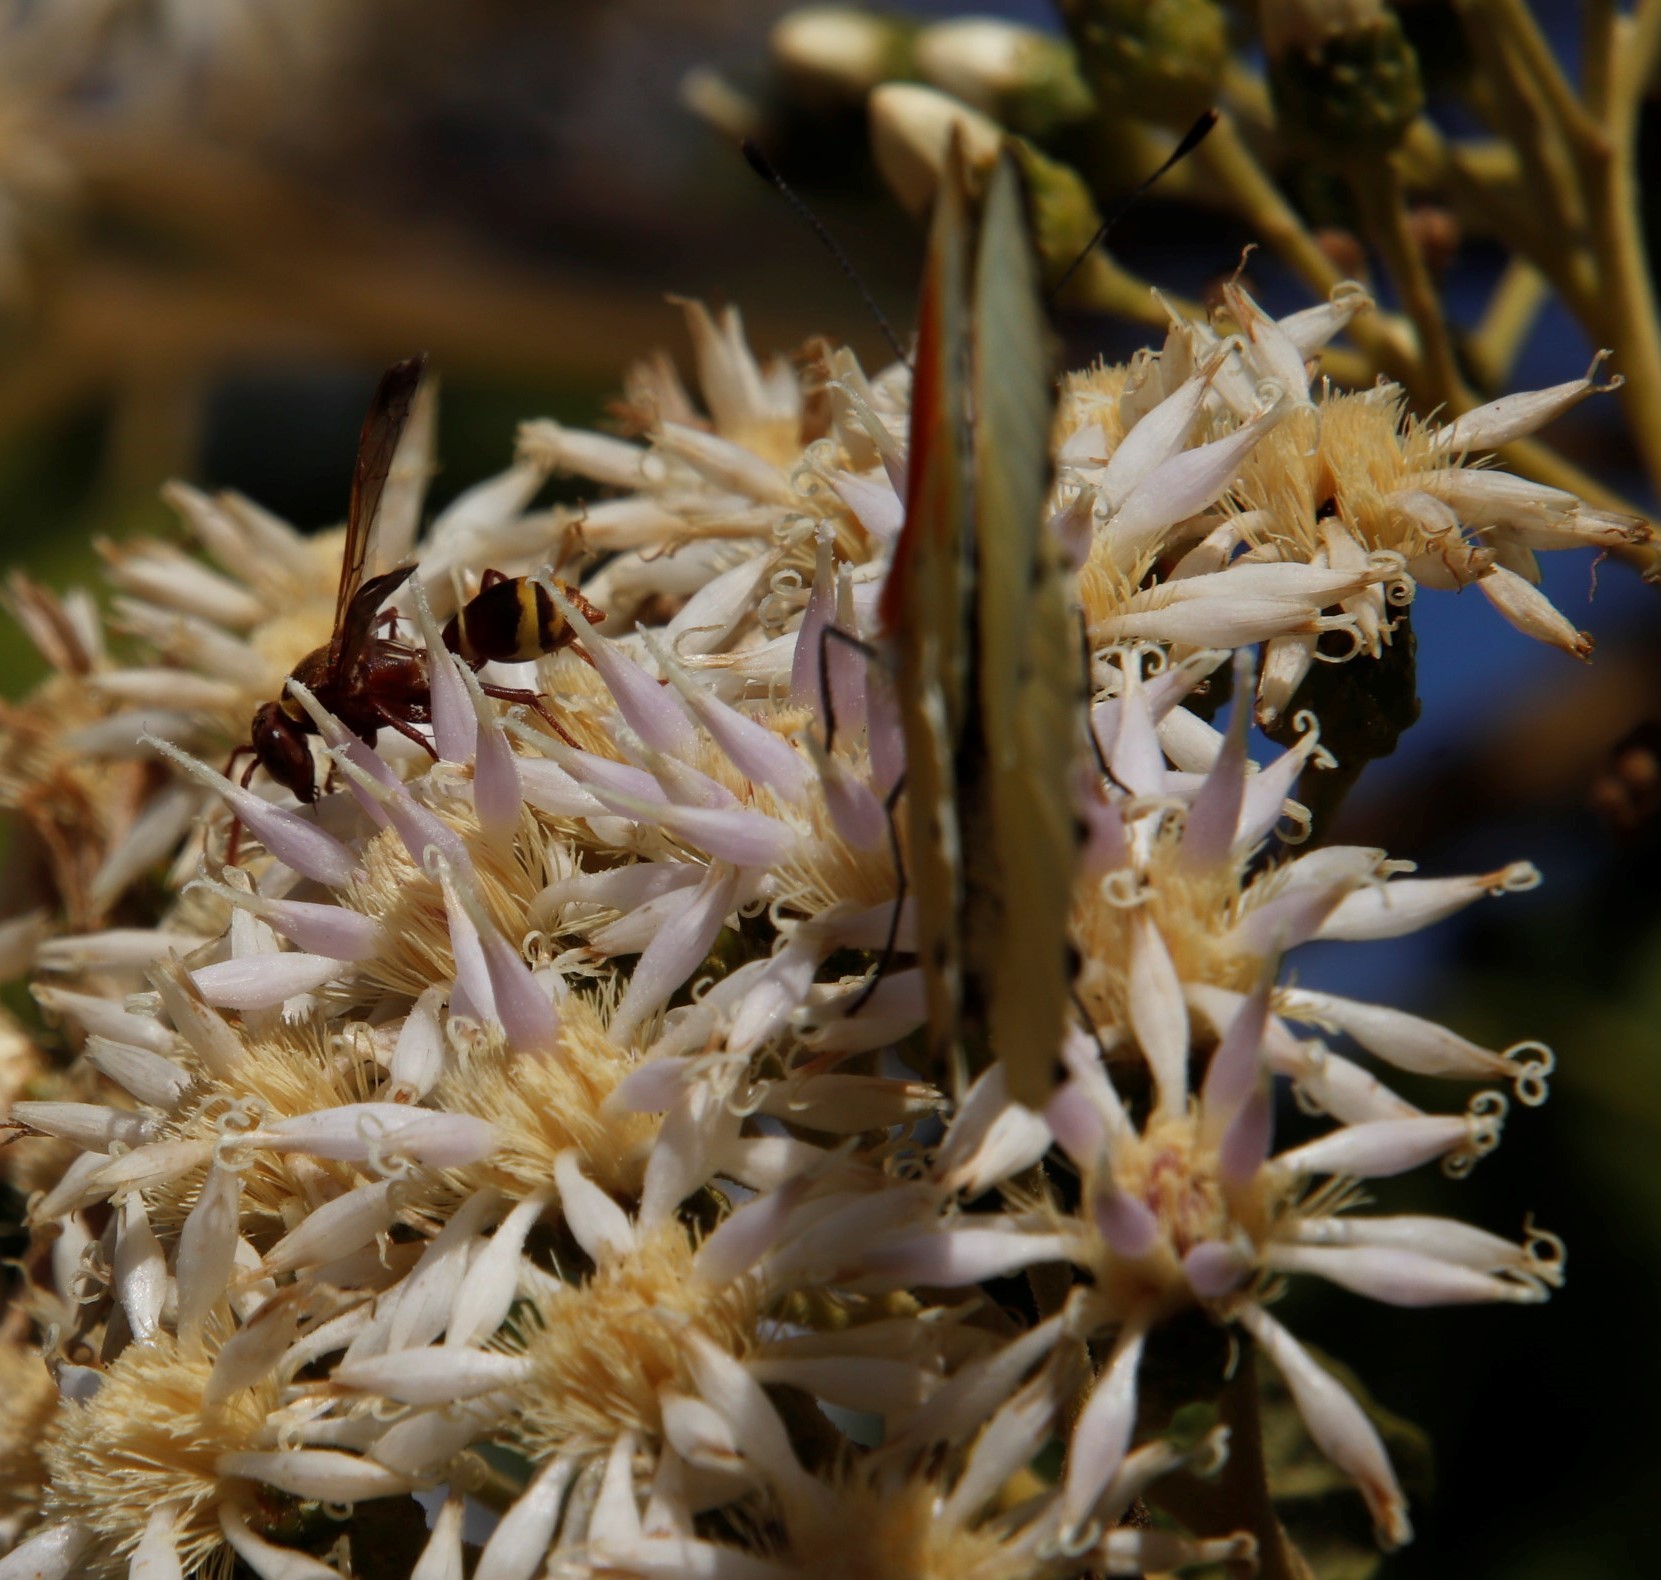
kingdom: Animalia
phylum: Arthropoda
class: Insecta
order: Lepidoptera
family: Pieridae
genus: Mylothris
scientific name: Mylothris agathina
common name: Eastern dotted border
